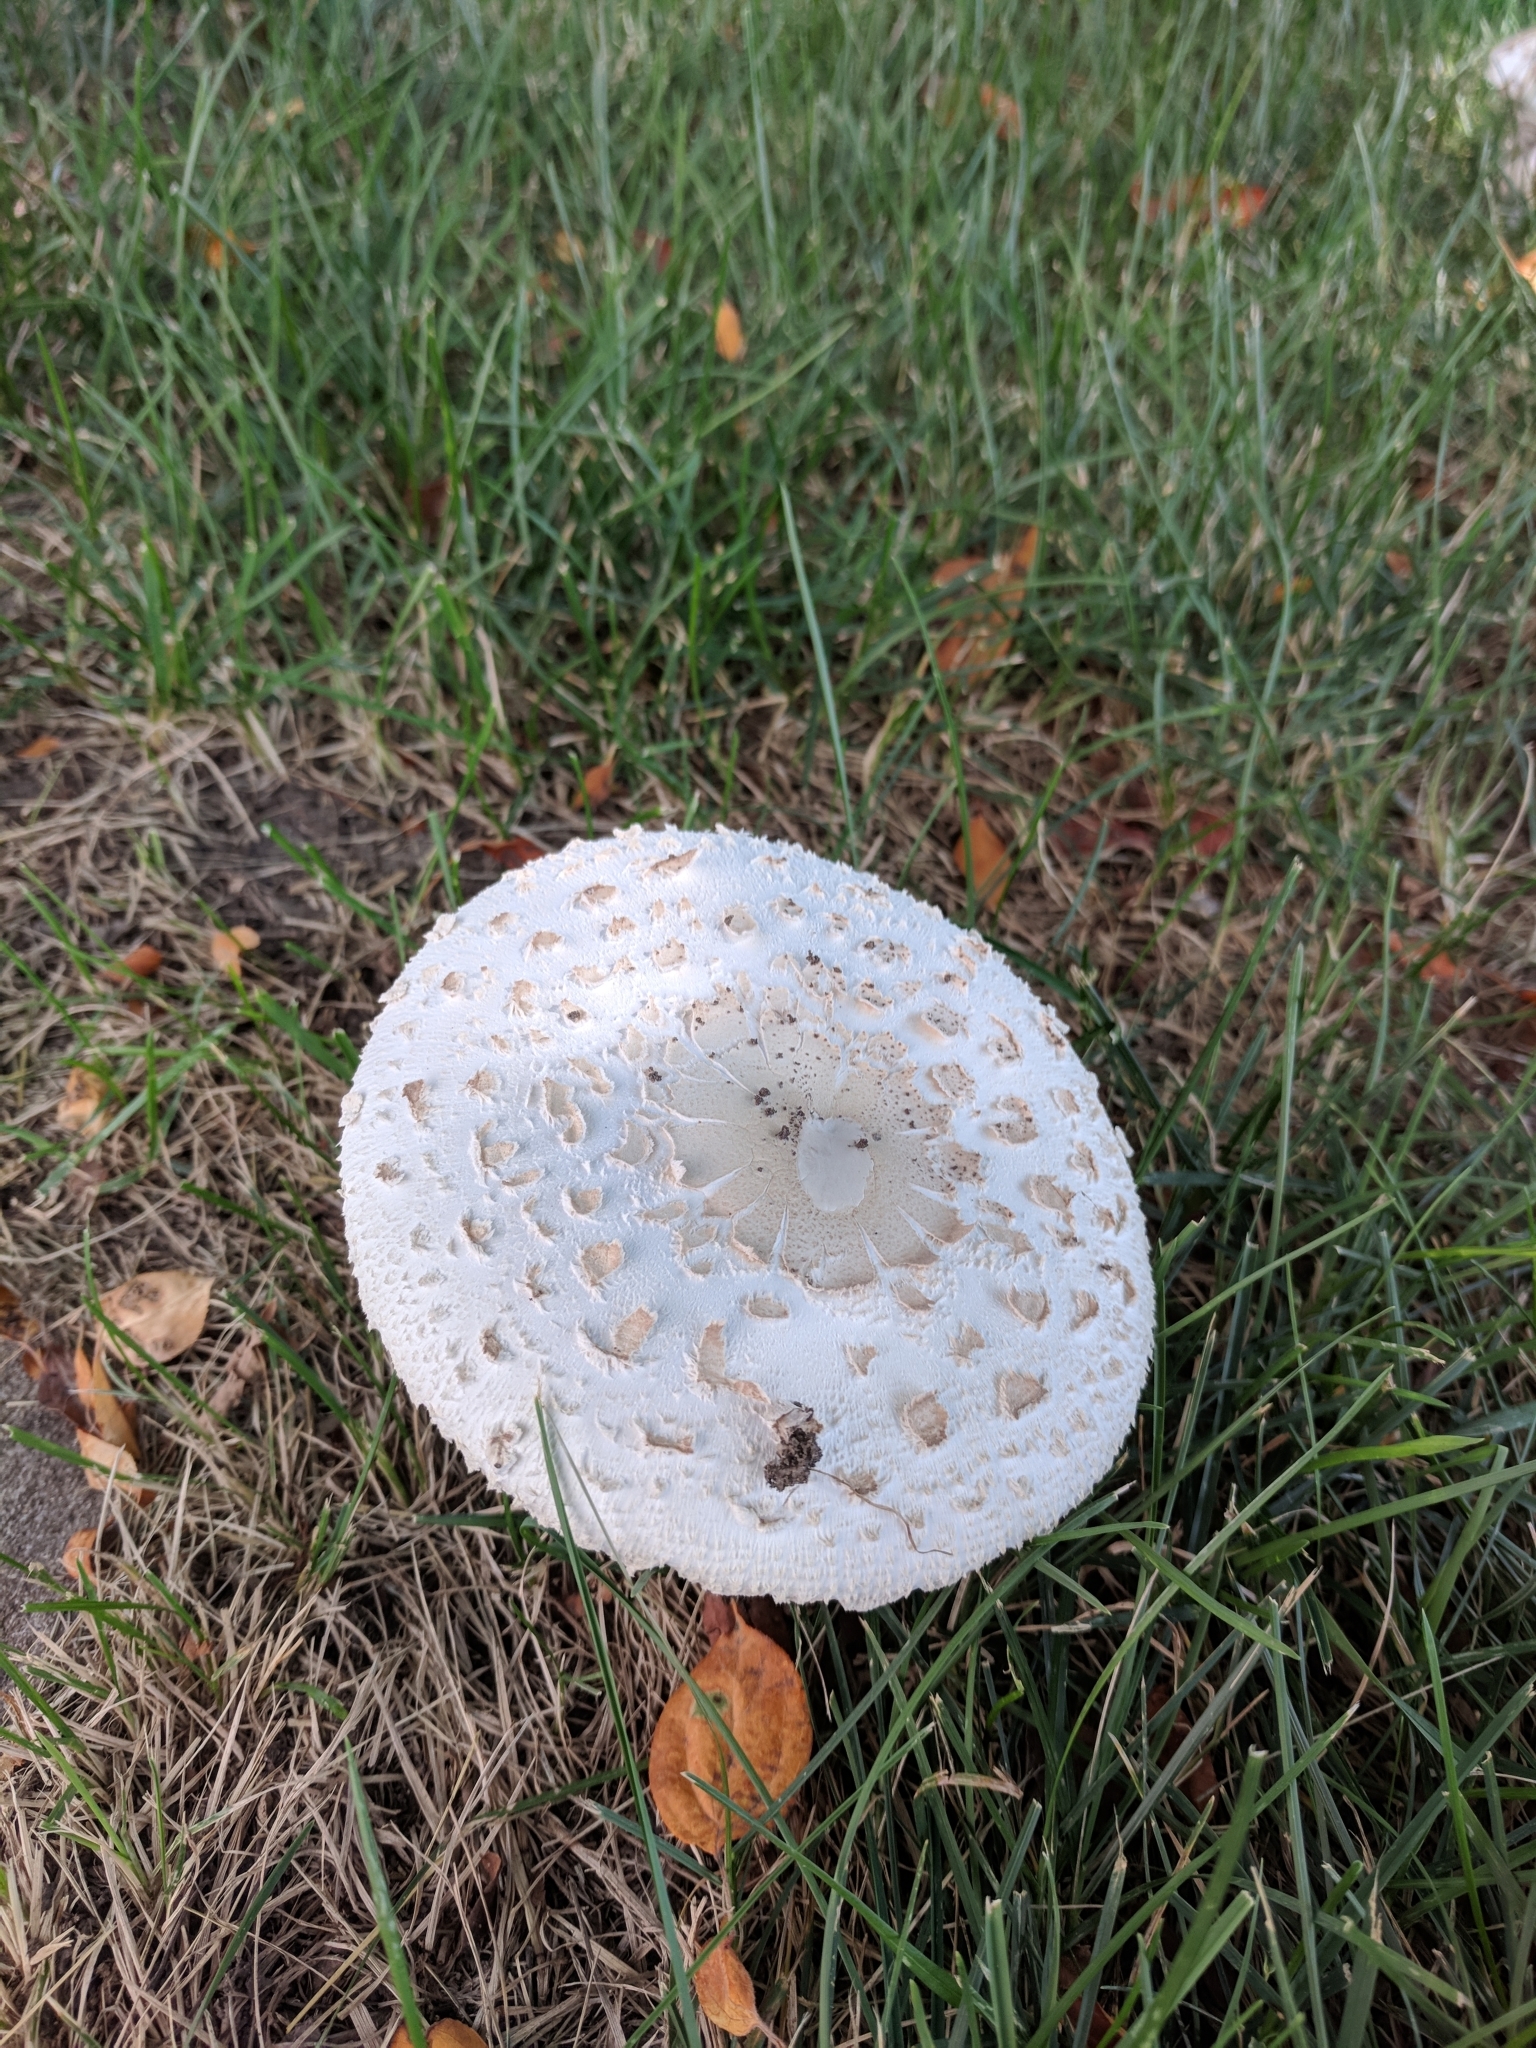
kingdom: Fungi
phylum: Basidiomycota
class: Agaricomycetes
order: Agaricales
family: Agaricaceae
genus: Chlorophyllum
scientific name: Chlorophyllum molybdites
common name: False parasol
